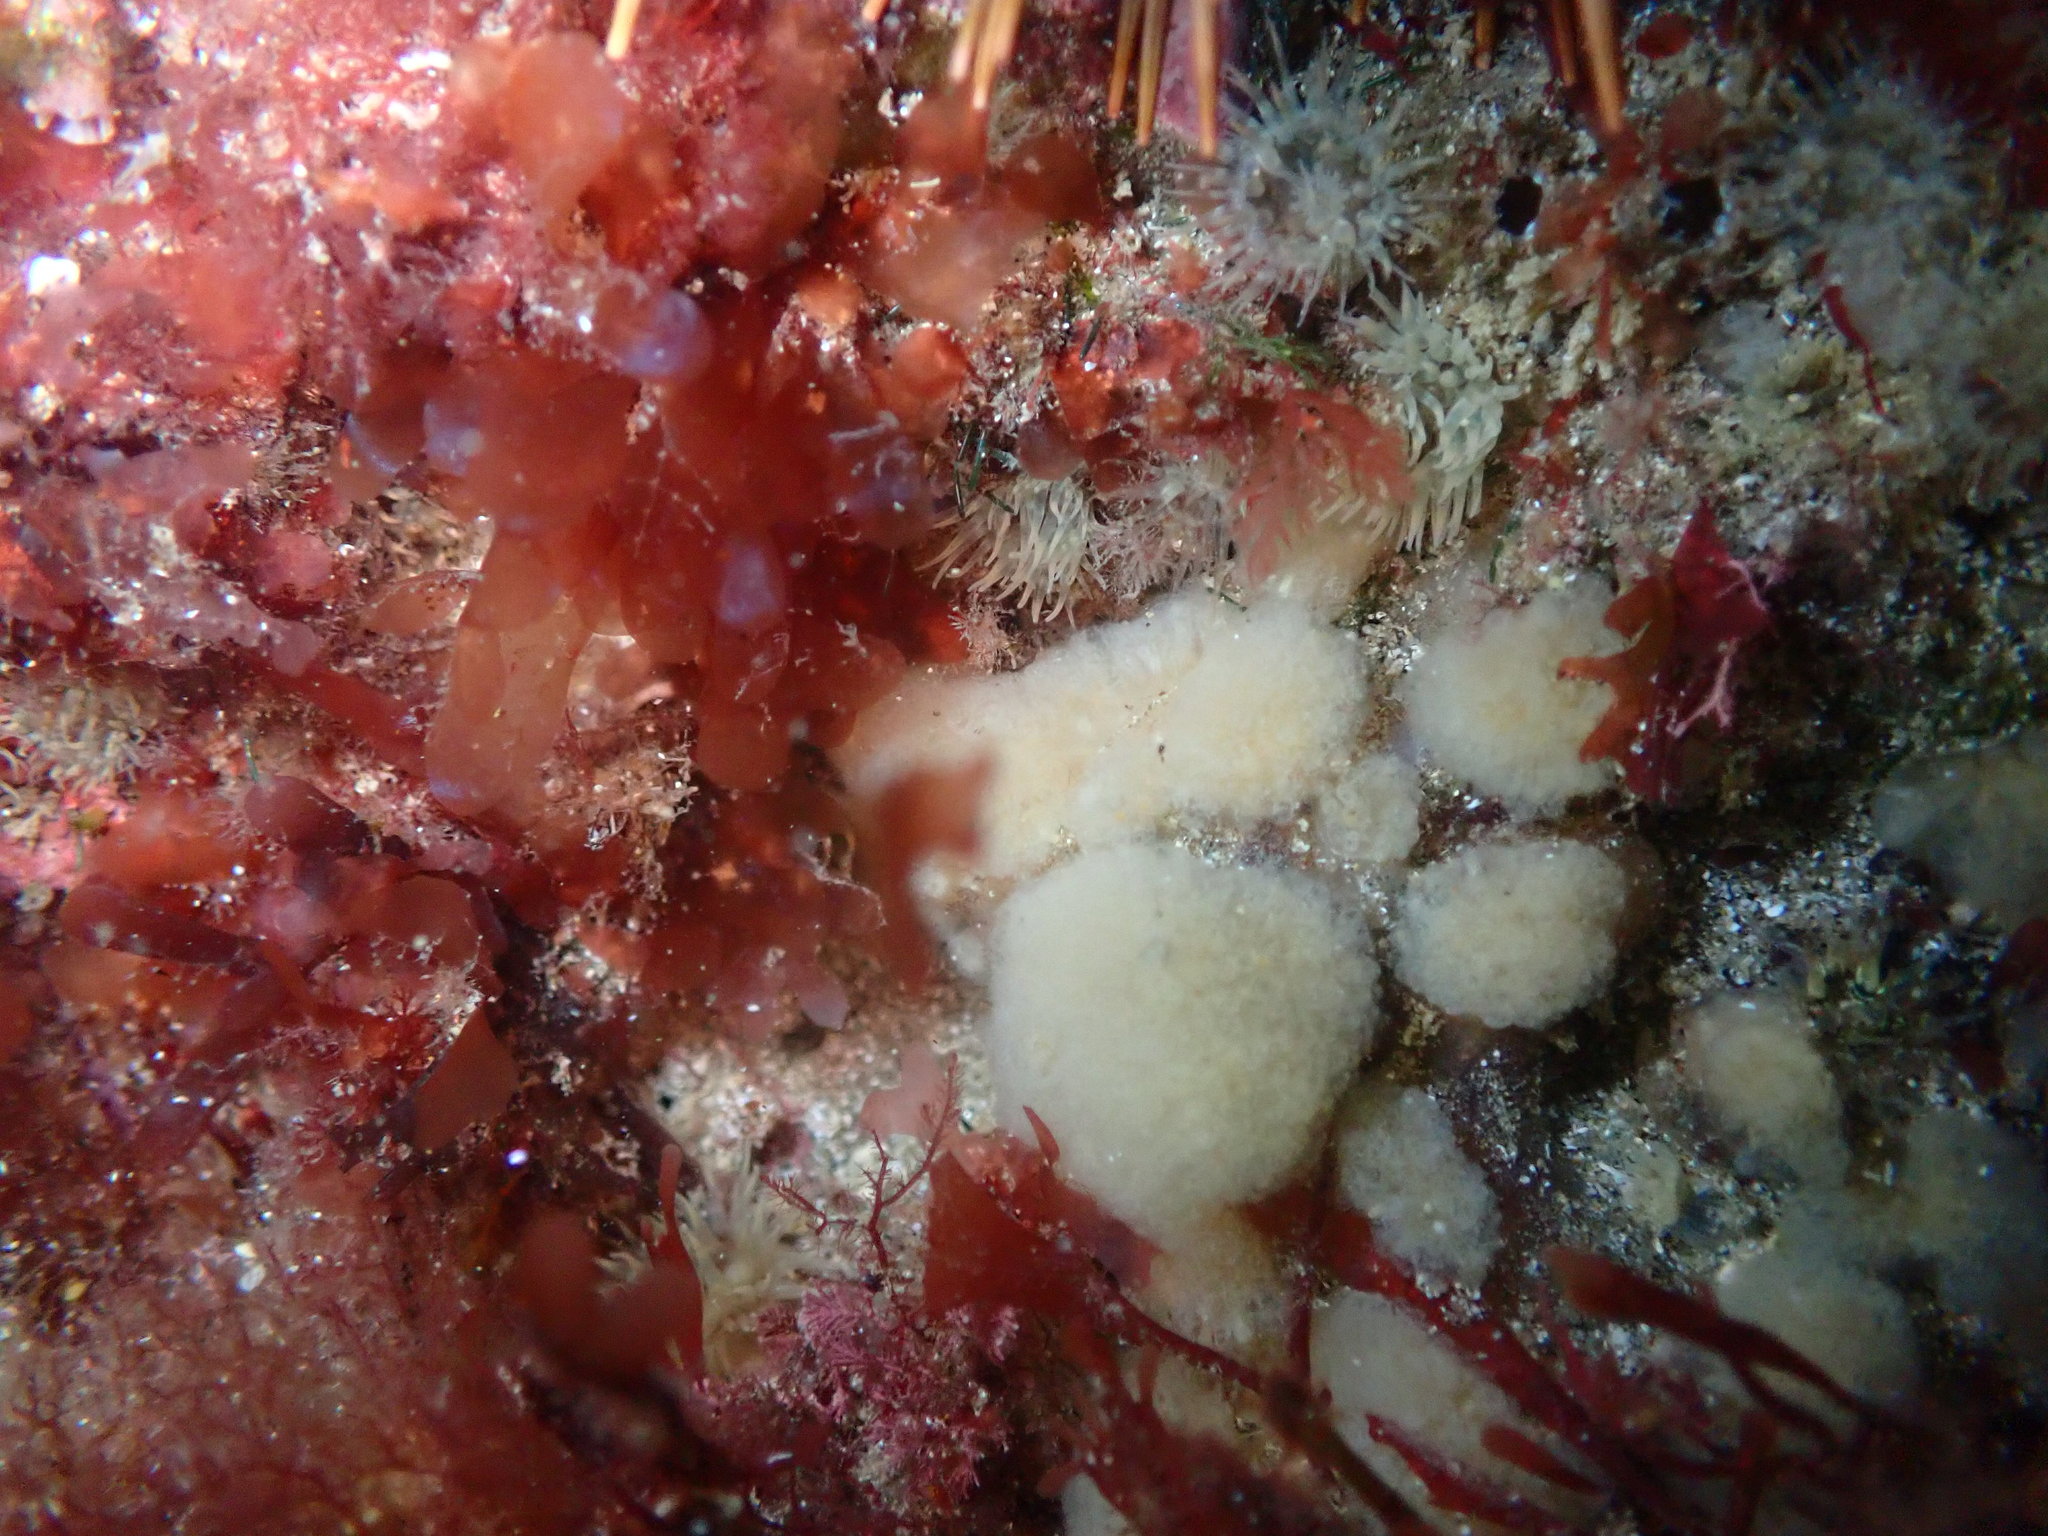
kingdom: Animalia
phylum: Chordata
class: Ascidiacea
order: Aplousobranchia
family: Pseudodistomidae
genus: Pseudodistoma
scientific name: Pseudodistoma opacum
